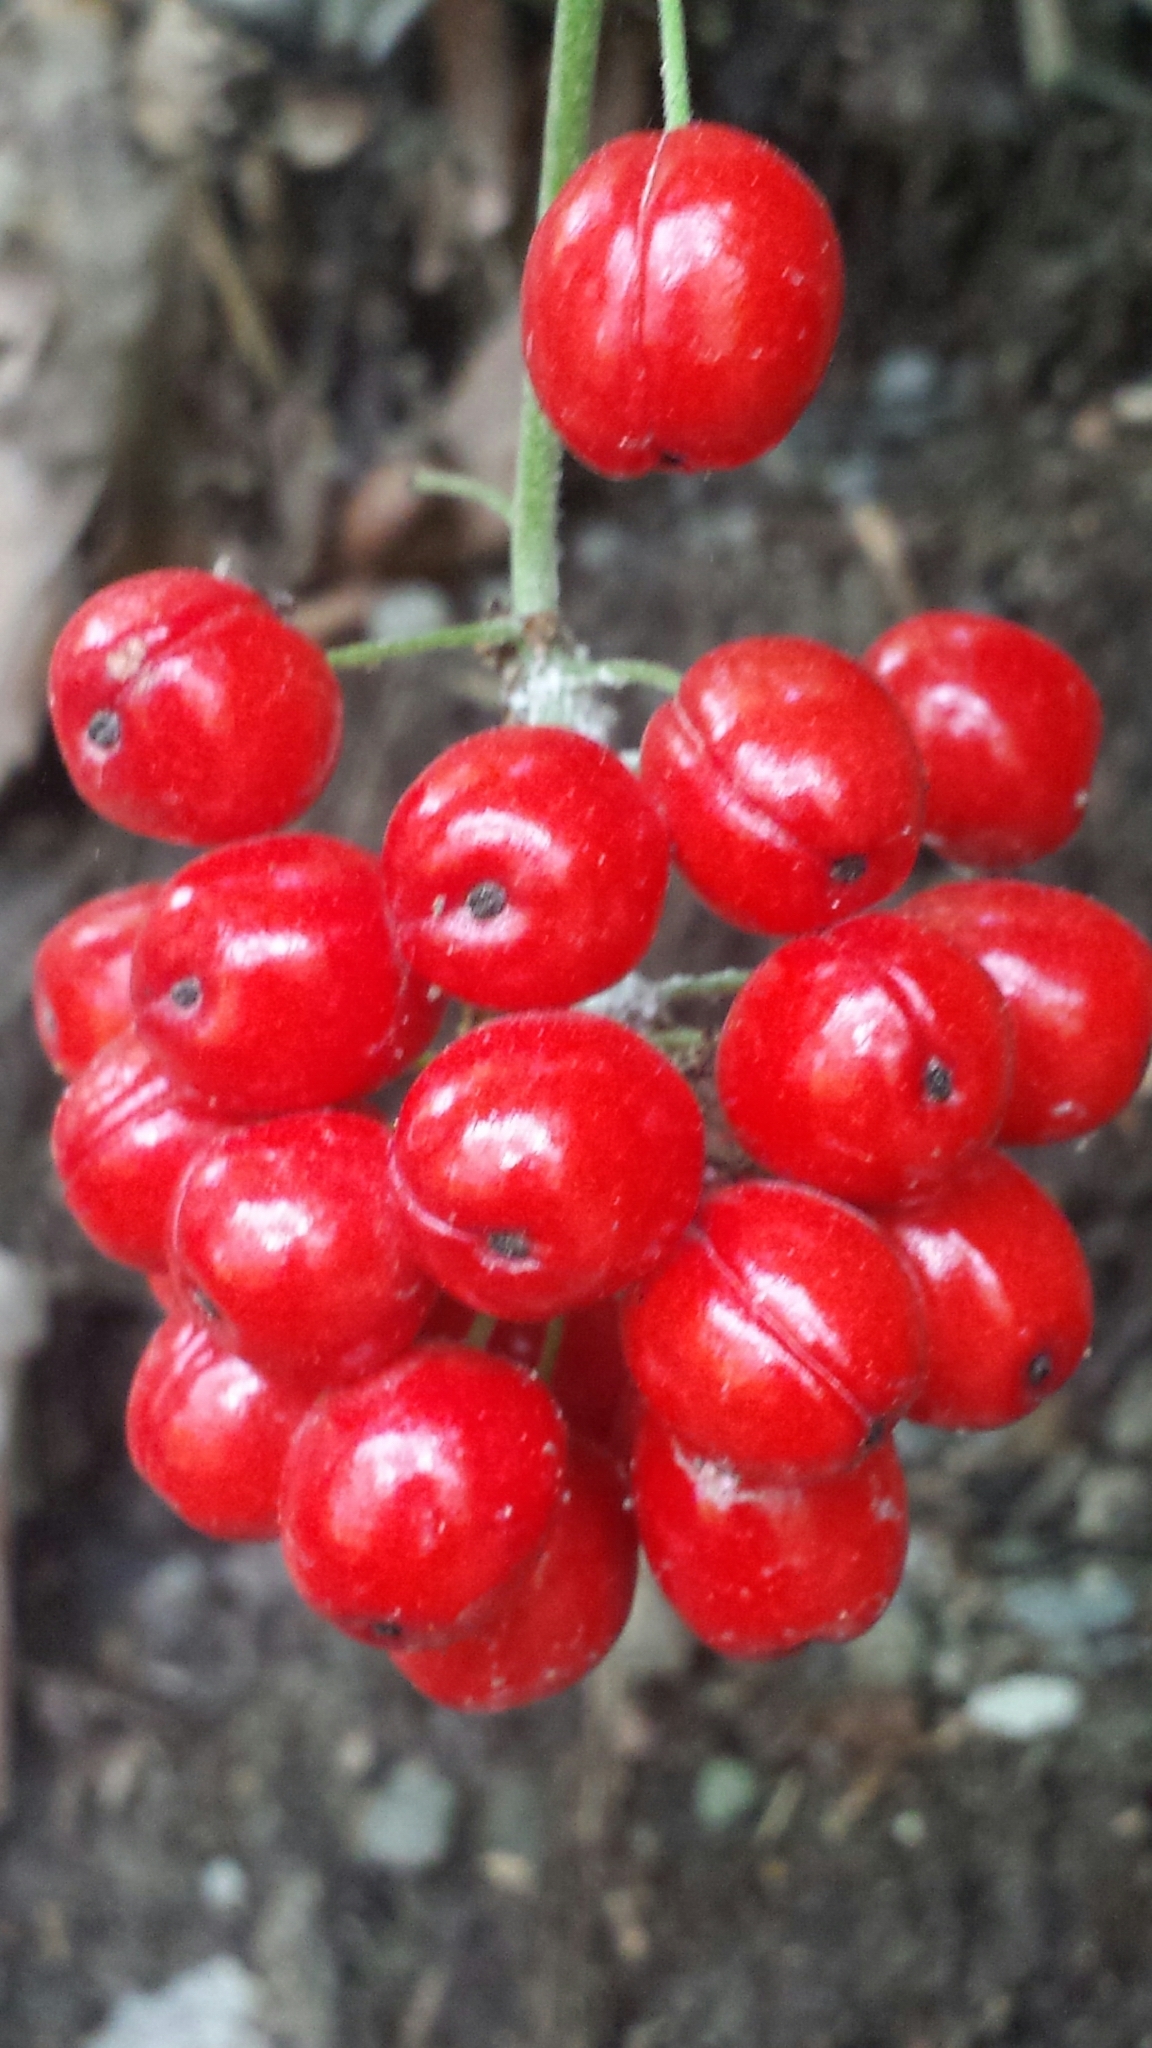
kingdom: Plantae
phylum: Tracheophyta
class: Magnoliopsida
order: Ranunculales
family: Ranunculaceae
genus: Actaea
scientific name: Actaea rubra
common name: Red baneberry
